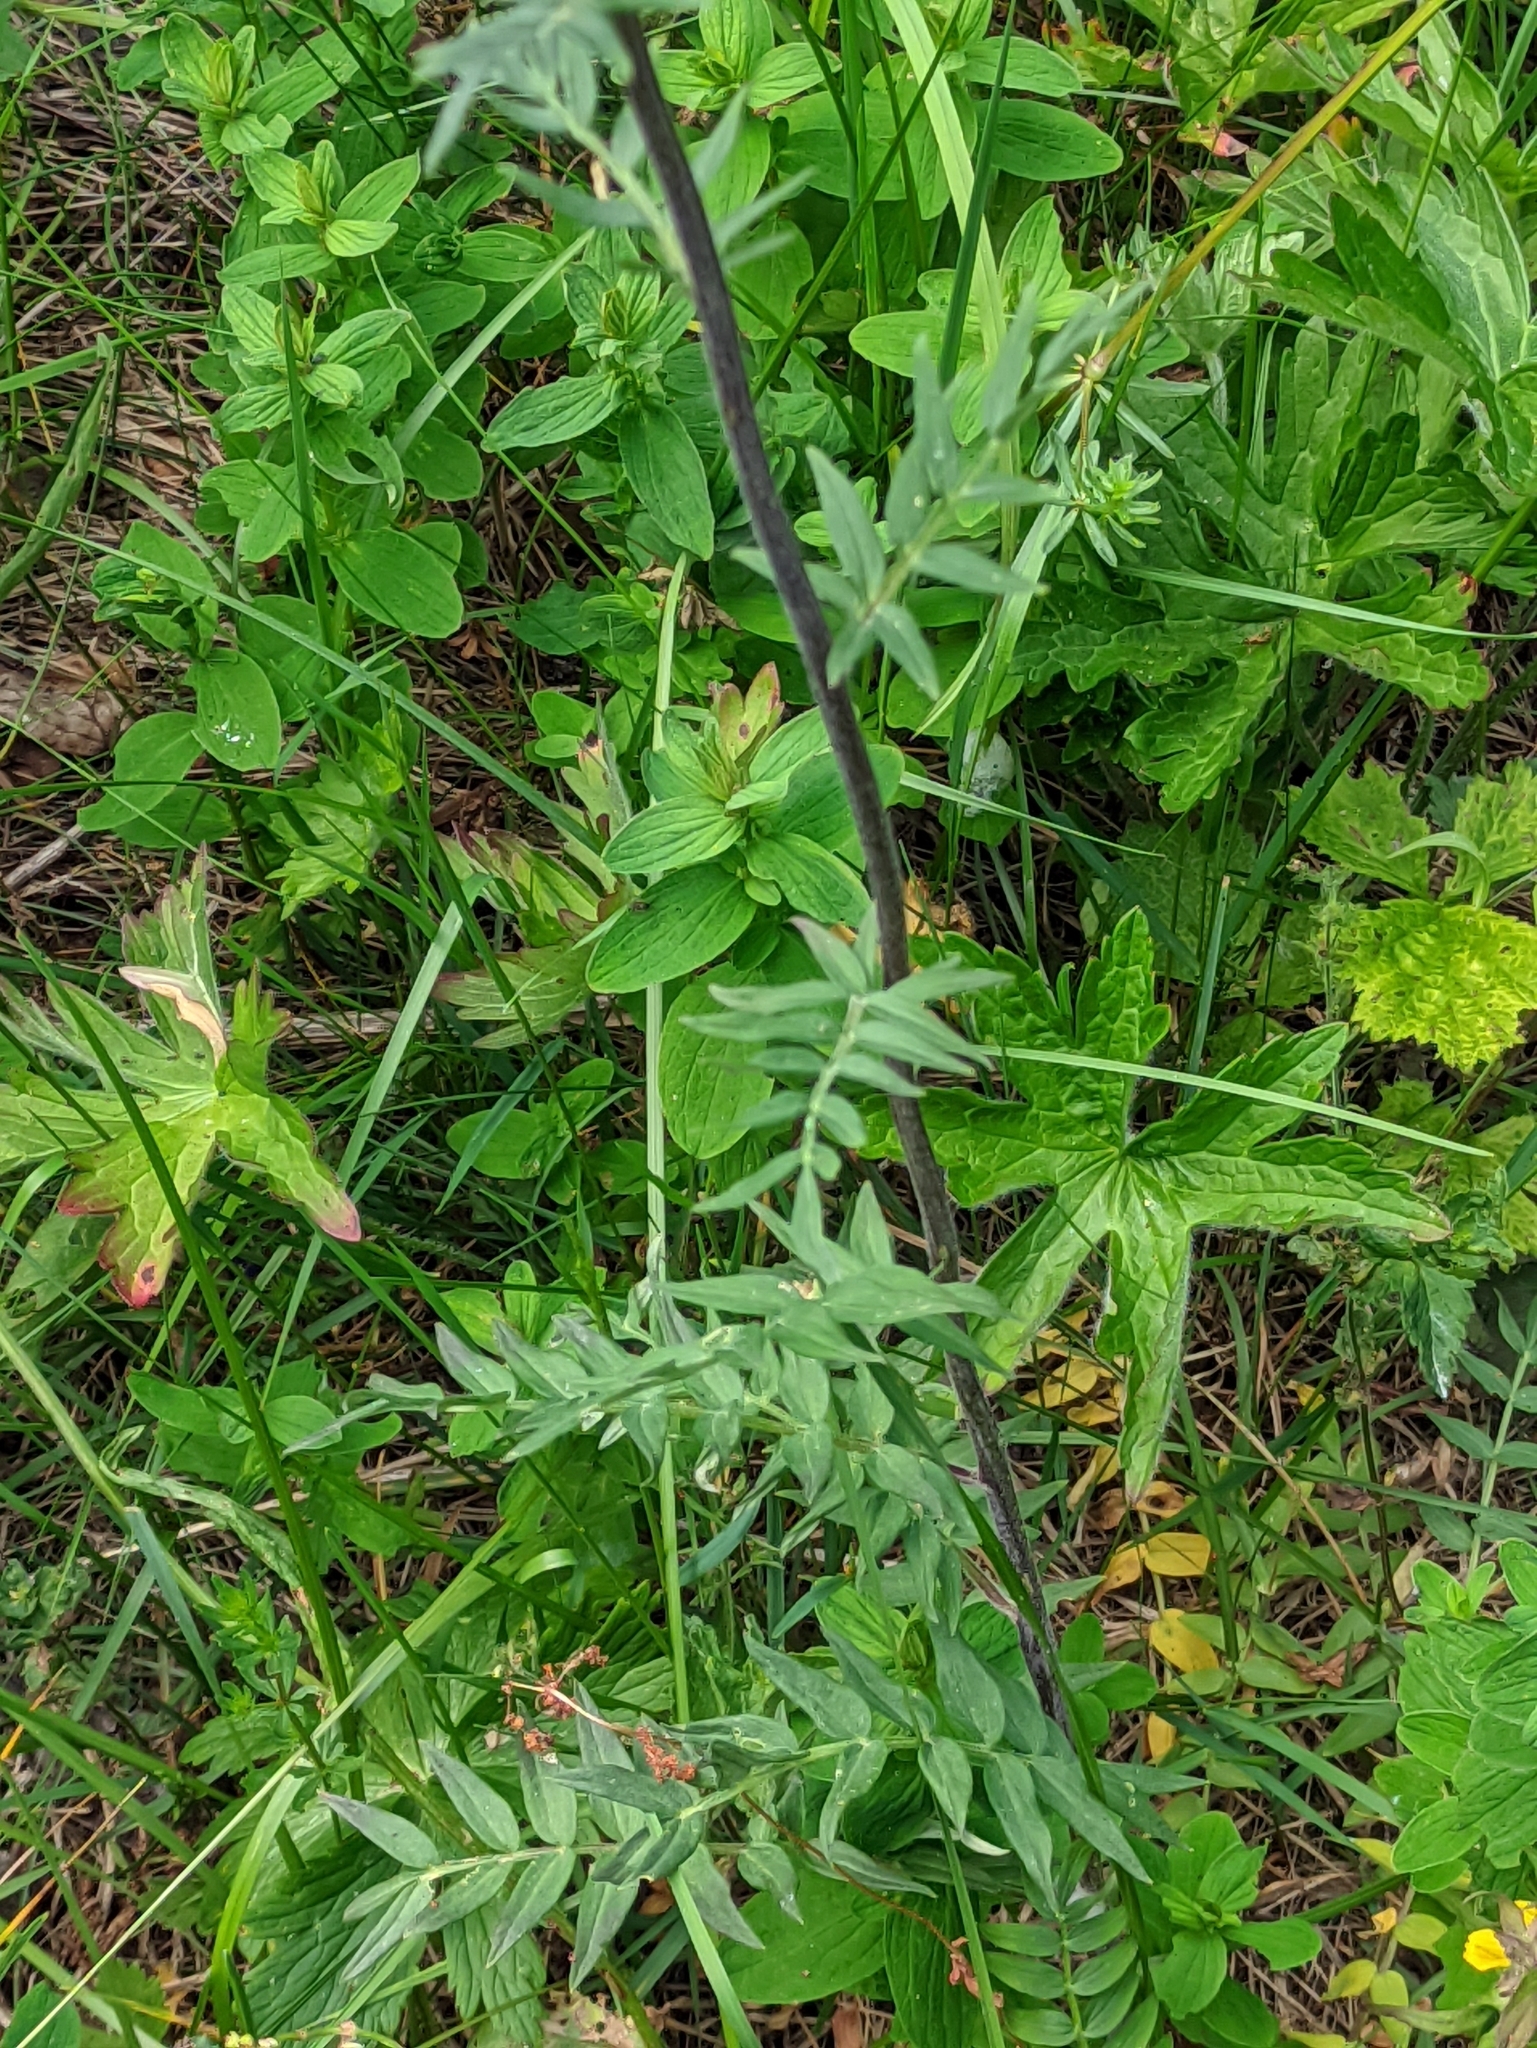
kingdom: Plantae
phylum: Tracheophyta
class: Magnoliopsida
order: Ericales
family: Polemoniaceae
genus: Polemonium
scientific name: Polemonium caeruleum
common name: Jacob's-ladder
